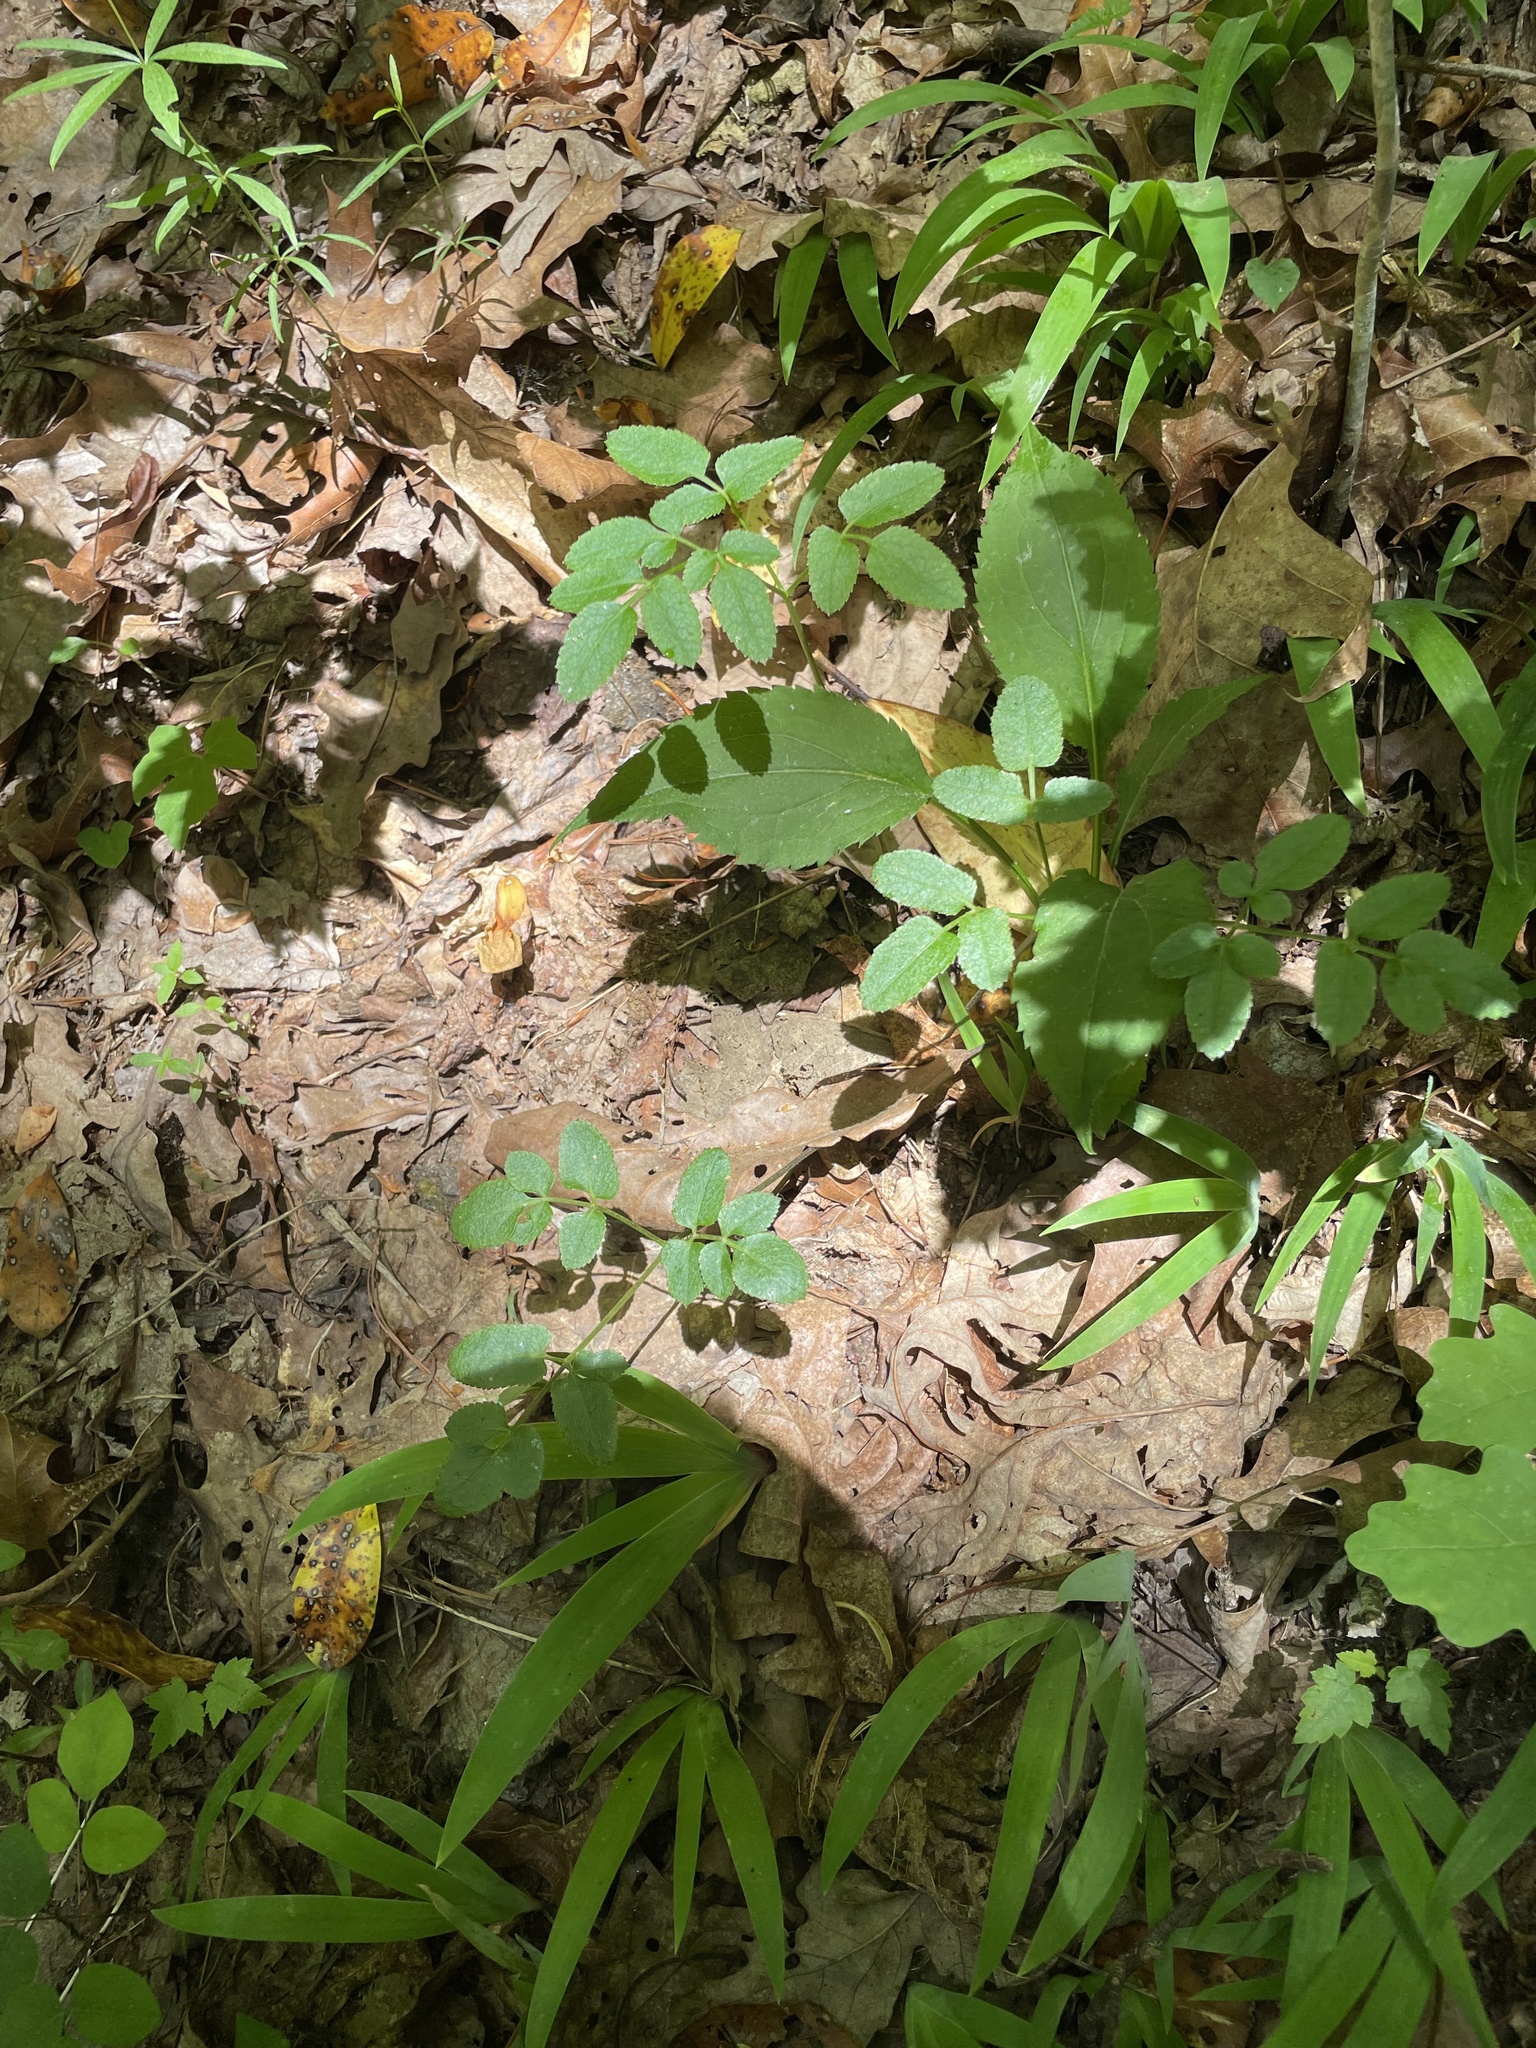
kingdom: Plantae
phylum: Tracheophyta
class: Magnoliopsida
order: Apiales
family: Apiaceae
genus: Angelica
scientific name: Angelica venenosa
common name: Hairy angelica
